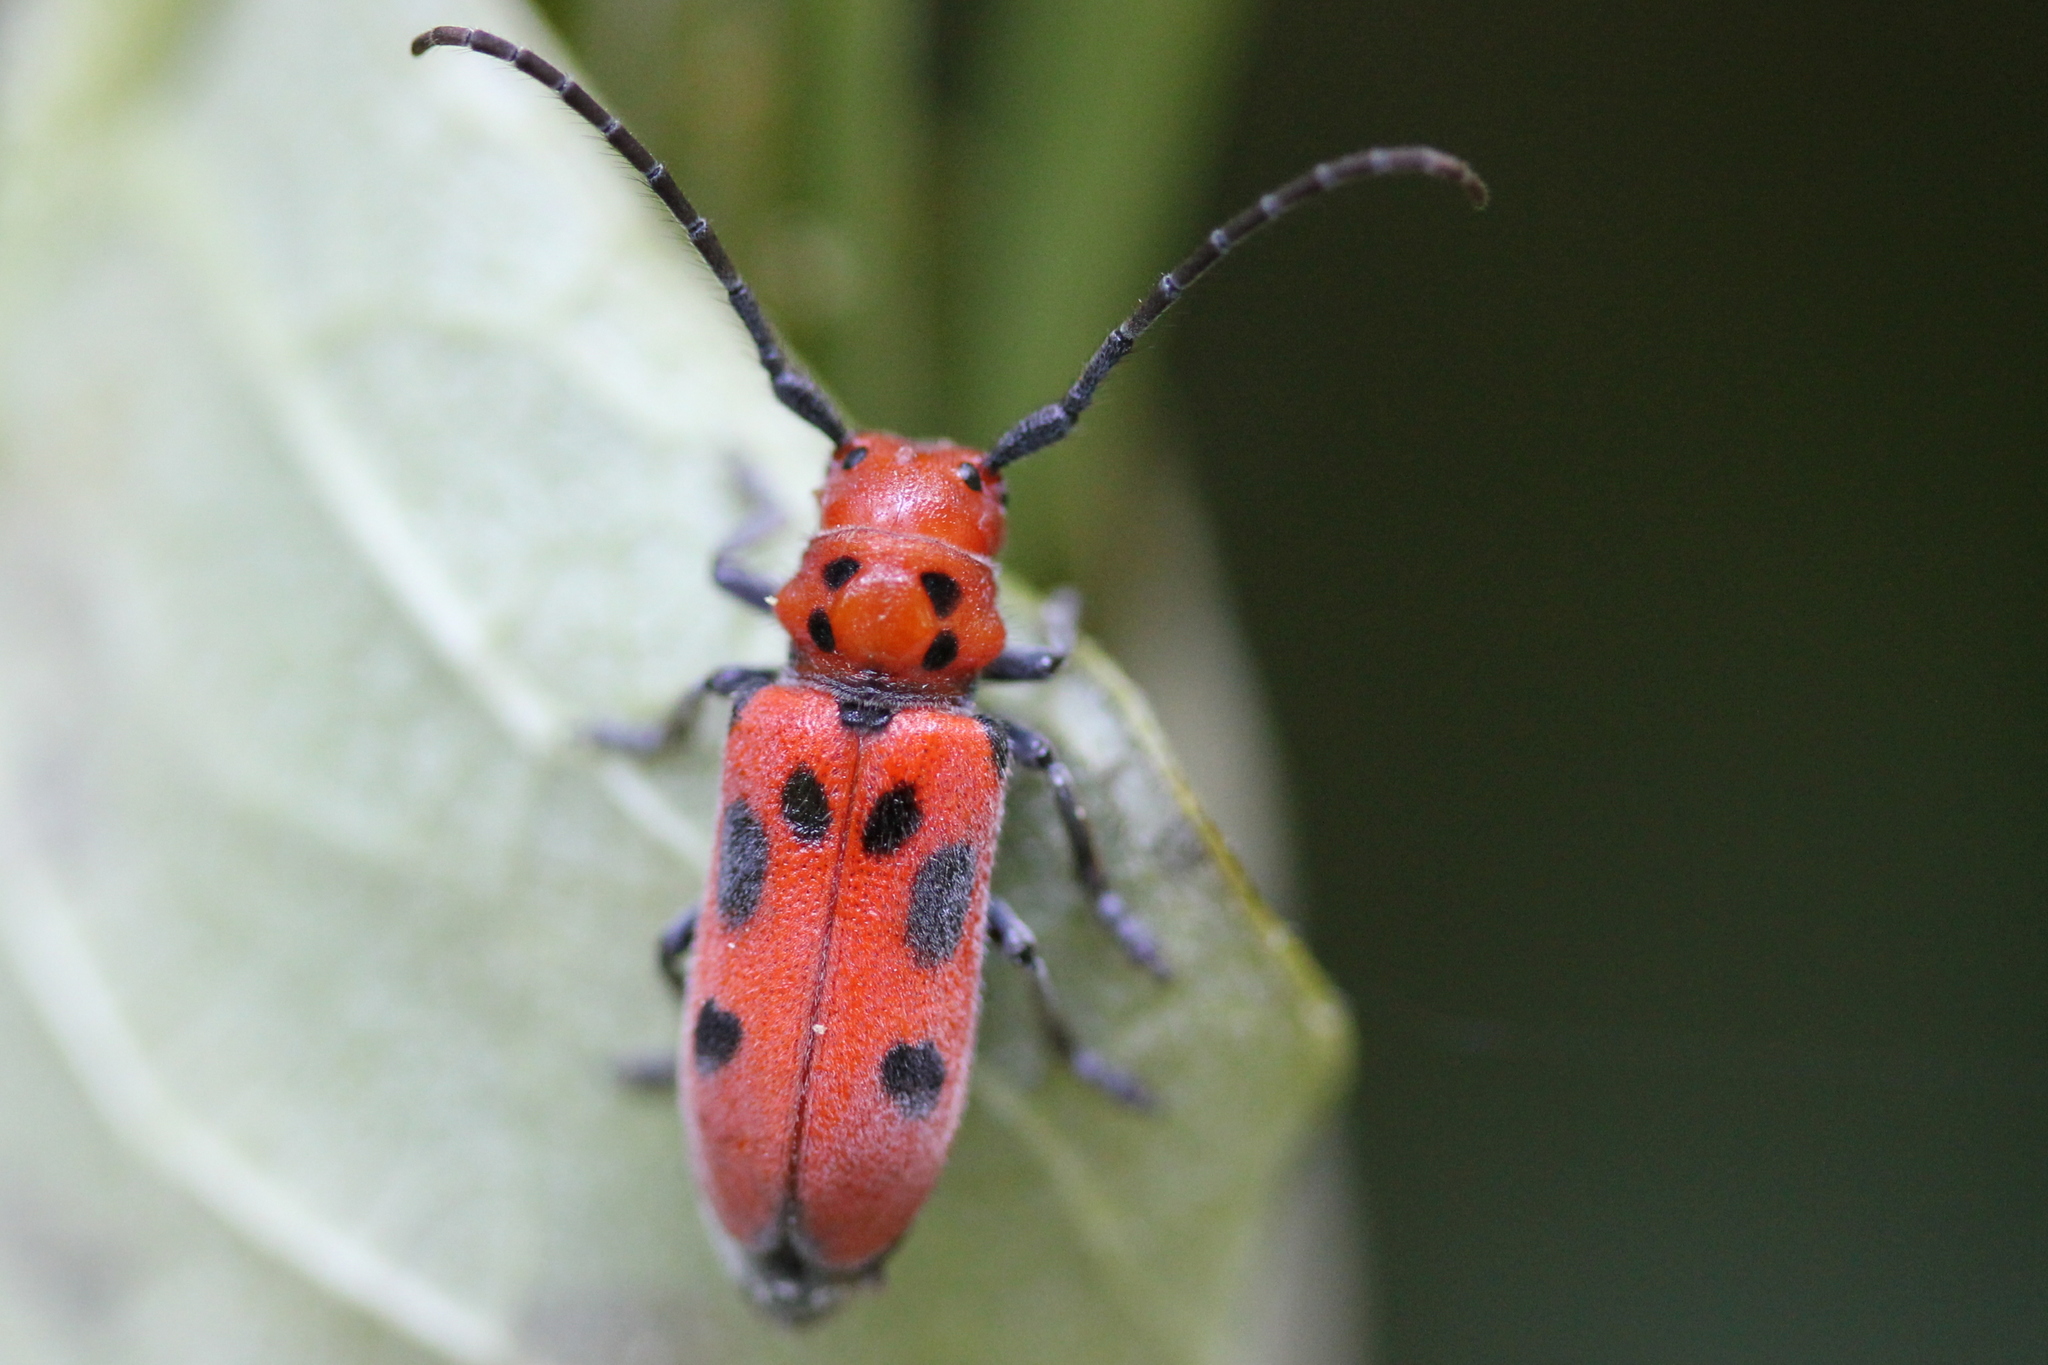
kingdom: Animalia
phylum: Arthropoda
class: Insecta
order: Coleoptera
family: Cerambycidae
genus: Tetraopes
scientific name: Tetraopes tetrophthalmus
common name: Red milkweed beetle
